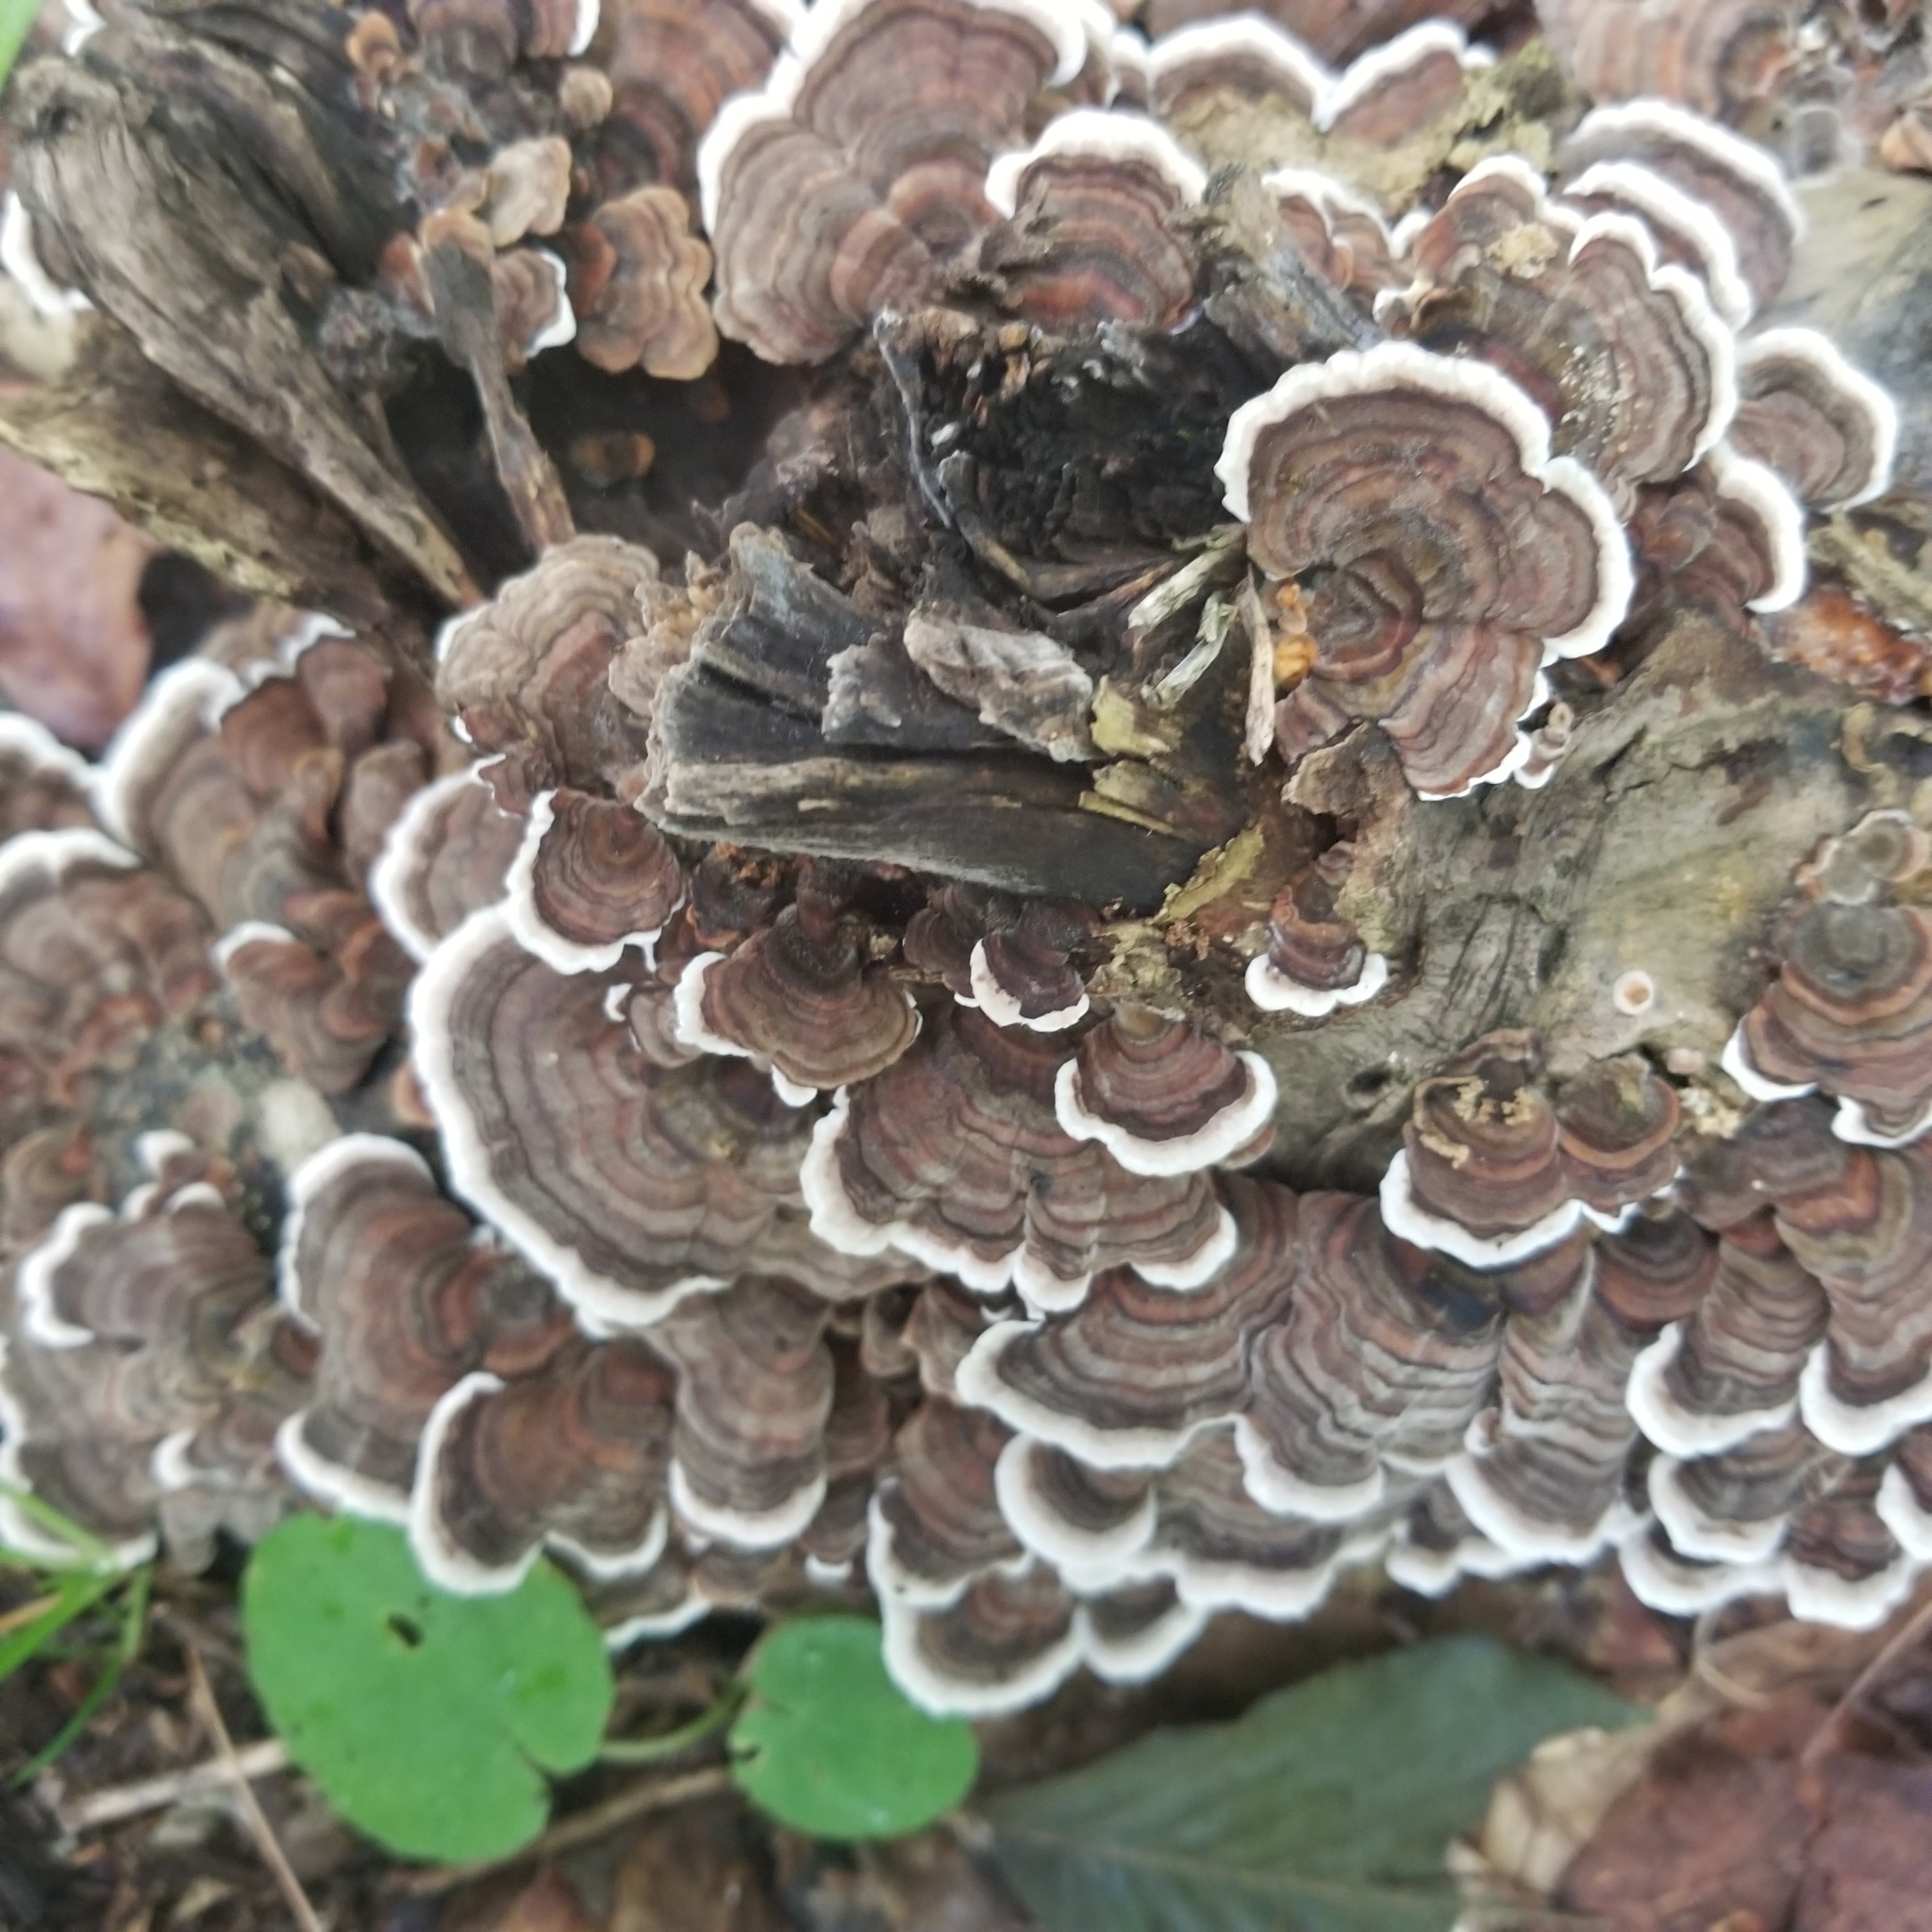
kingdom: Fungi
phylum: Basidiomycota
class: Agaricomycetes
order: Polyporales
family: Polyporaceae
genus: Trametes
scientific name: Trametes versicolor
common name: Turkeytail
